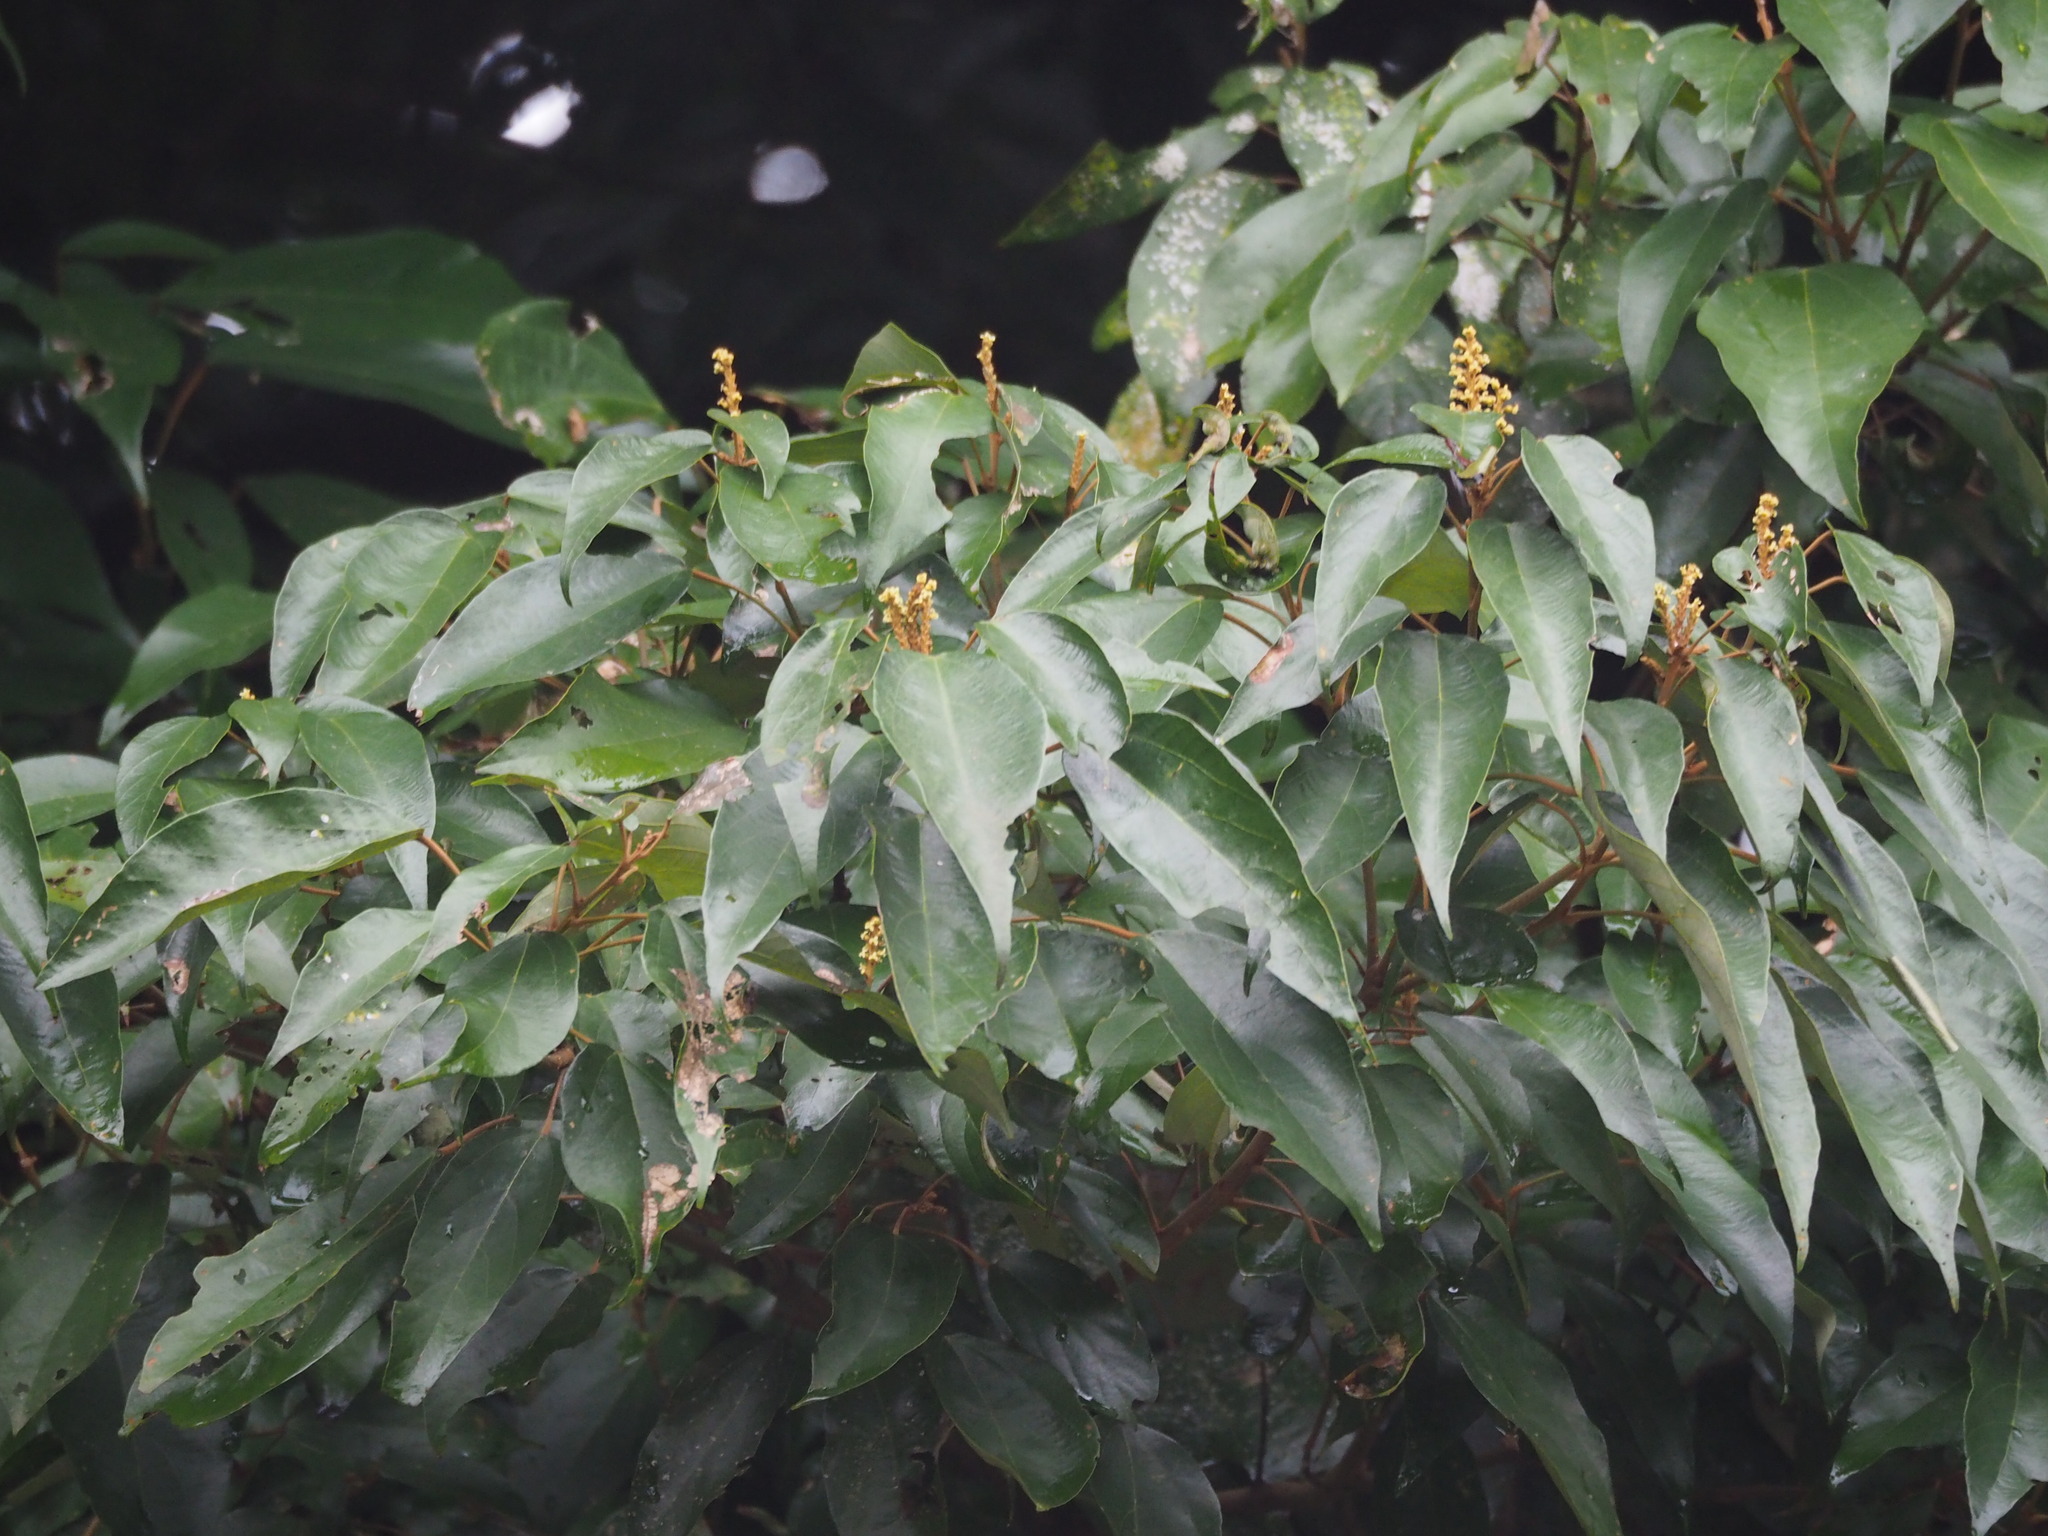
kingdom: Plantae
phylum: Tracheophyta
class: Magnoliopsida
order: Malpighiales
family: Euphorbiaceae
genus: Mallotus
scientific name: Mallotus philippensis
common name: Kamala tree
